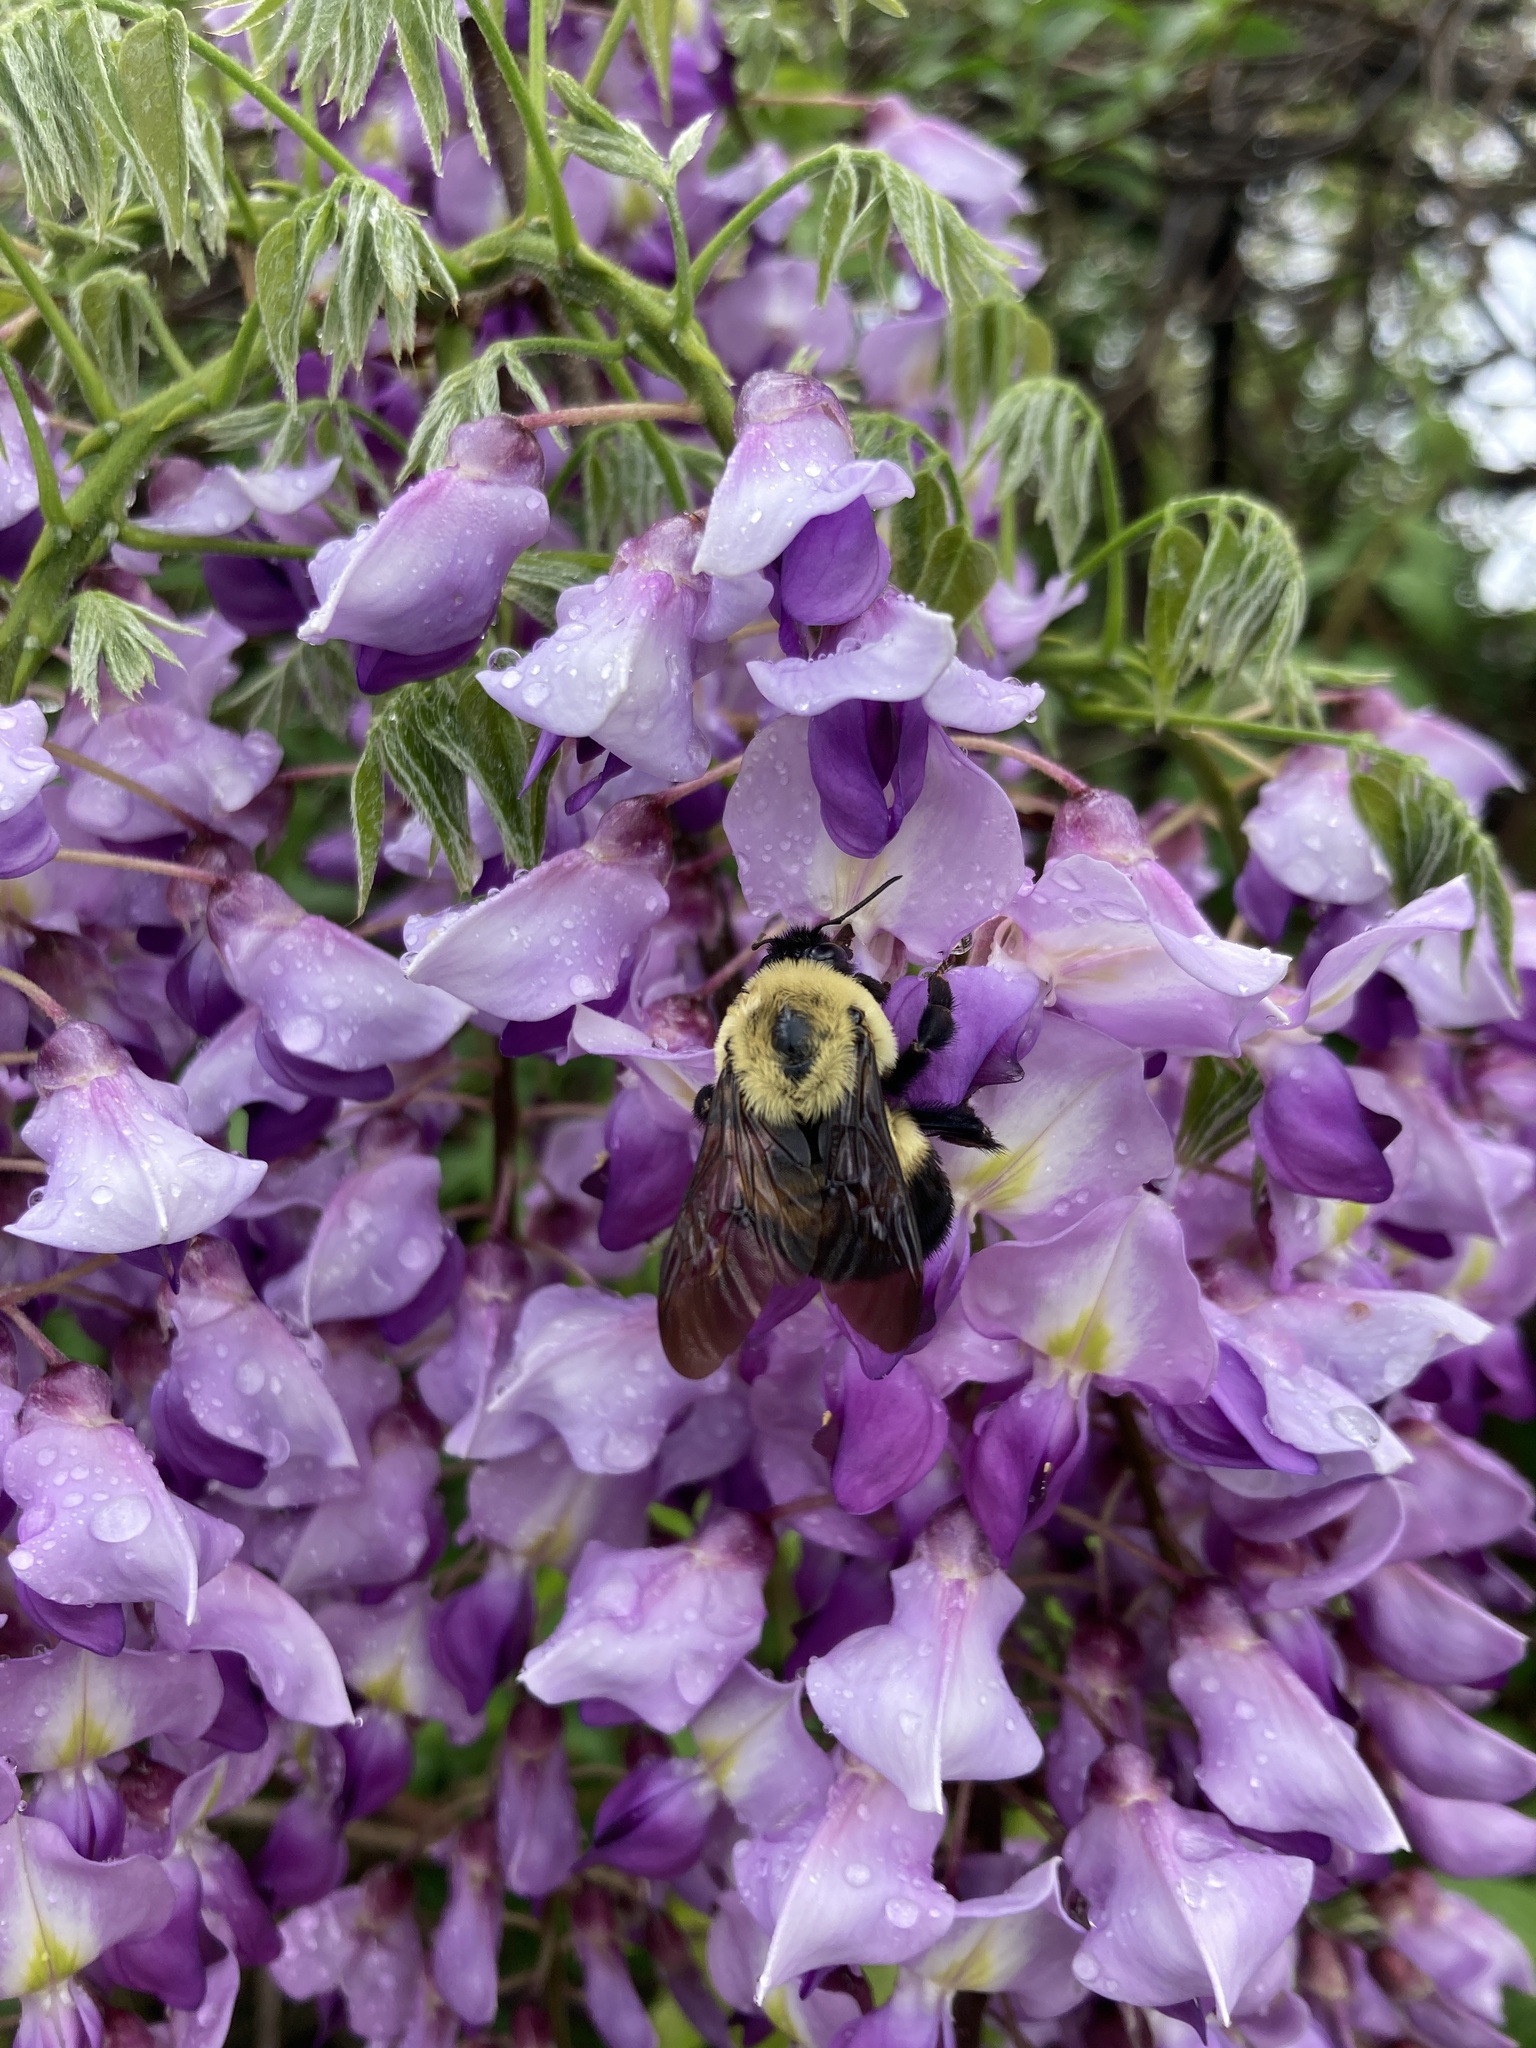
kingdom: Animalia
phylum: Arthropoda
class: Insecta
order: Hymenoptera
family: Apidae
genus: Bombus
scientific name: Bombus griseocollis
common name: Brown-belted bumble bee
